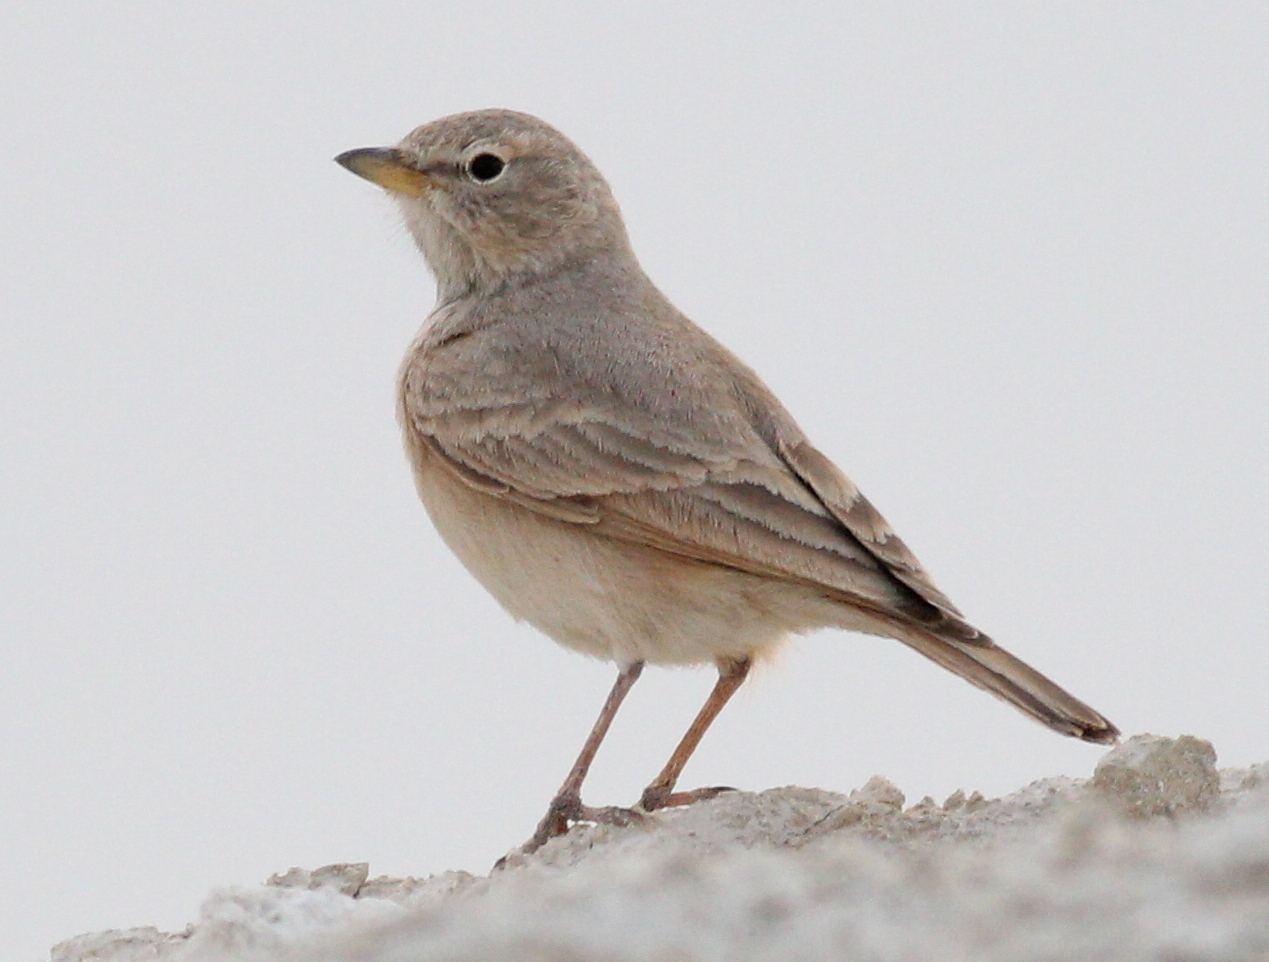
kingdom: Animalia
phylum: Chordata
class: Aves
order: Passeriformes
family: Alaudidae
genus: Ammomanes
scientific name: Ammomanes deserti
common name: Desert lark
